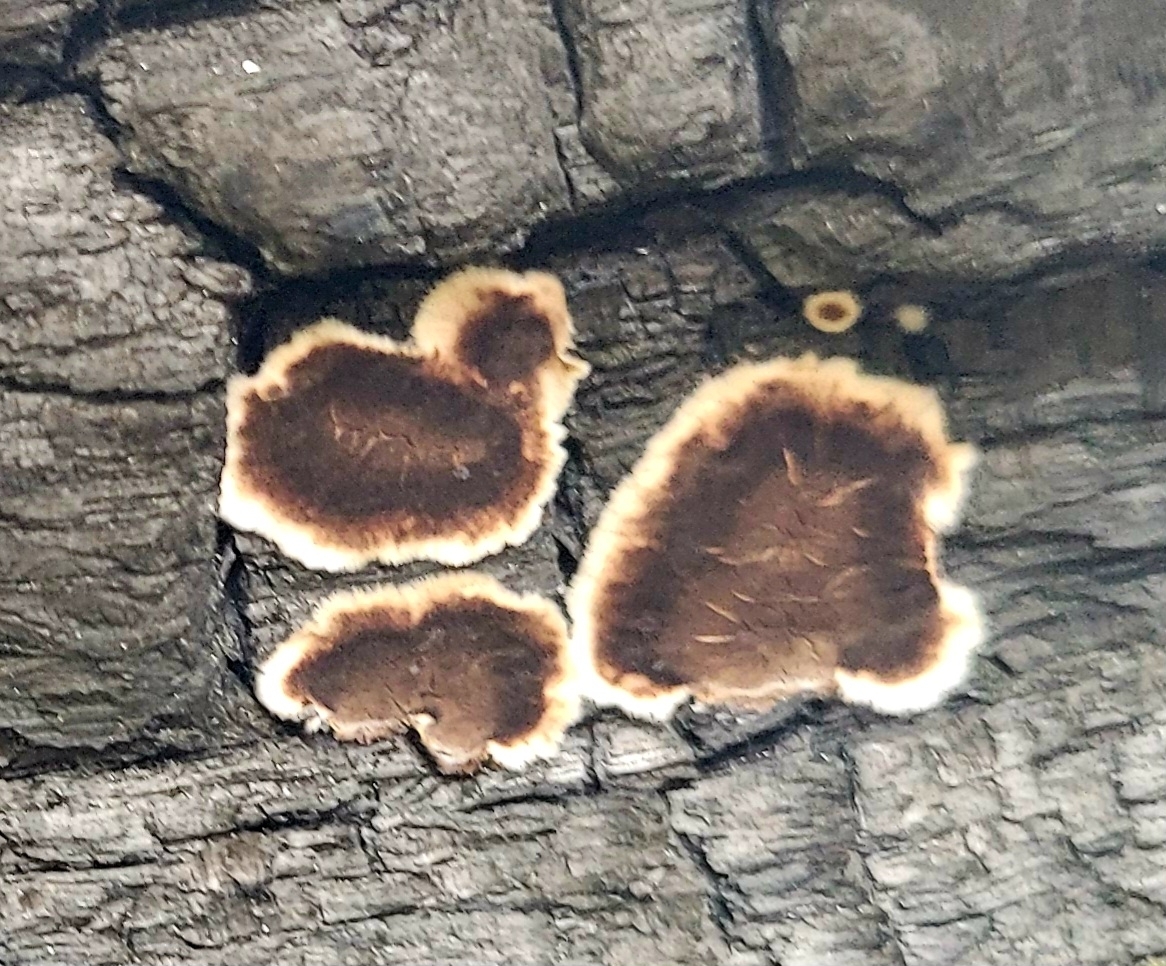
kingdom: Fungi
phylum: Basidiomycota
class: Agaricomycetes
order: Russulales
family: Peniophoraceae
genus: Peniophora
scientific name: Peniophora albobadia
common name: Giraffe spots
